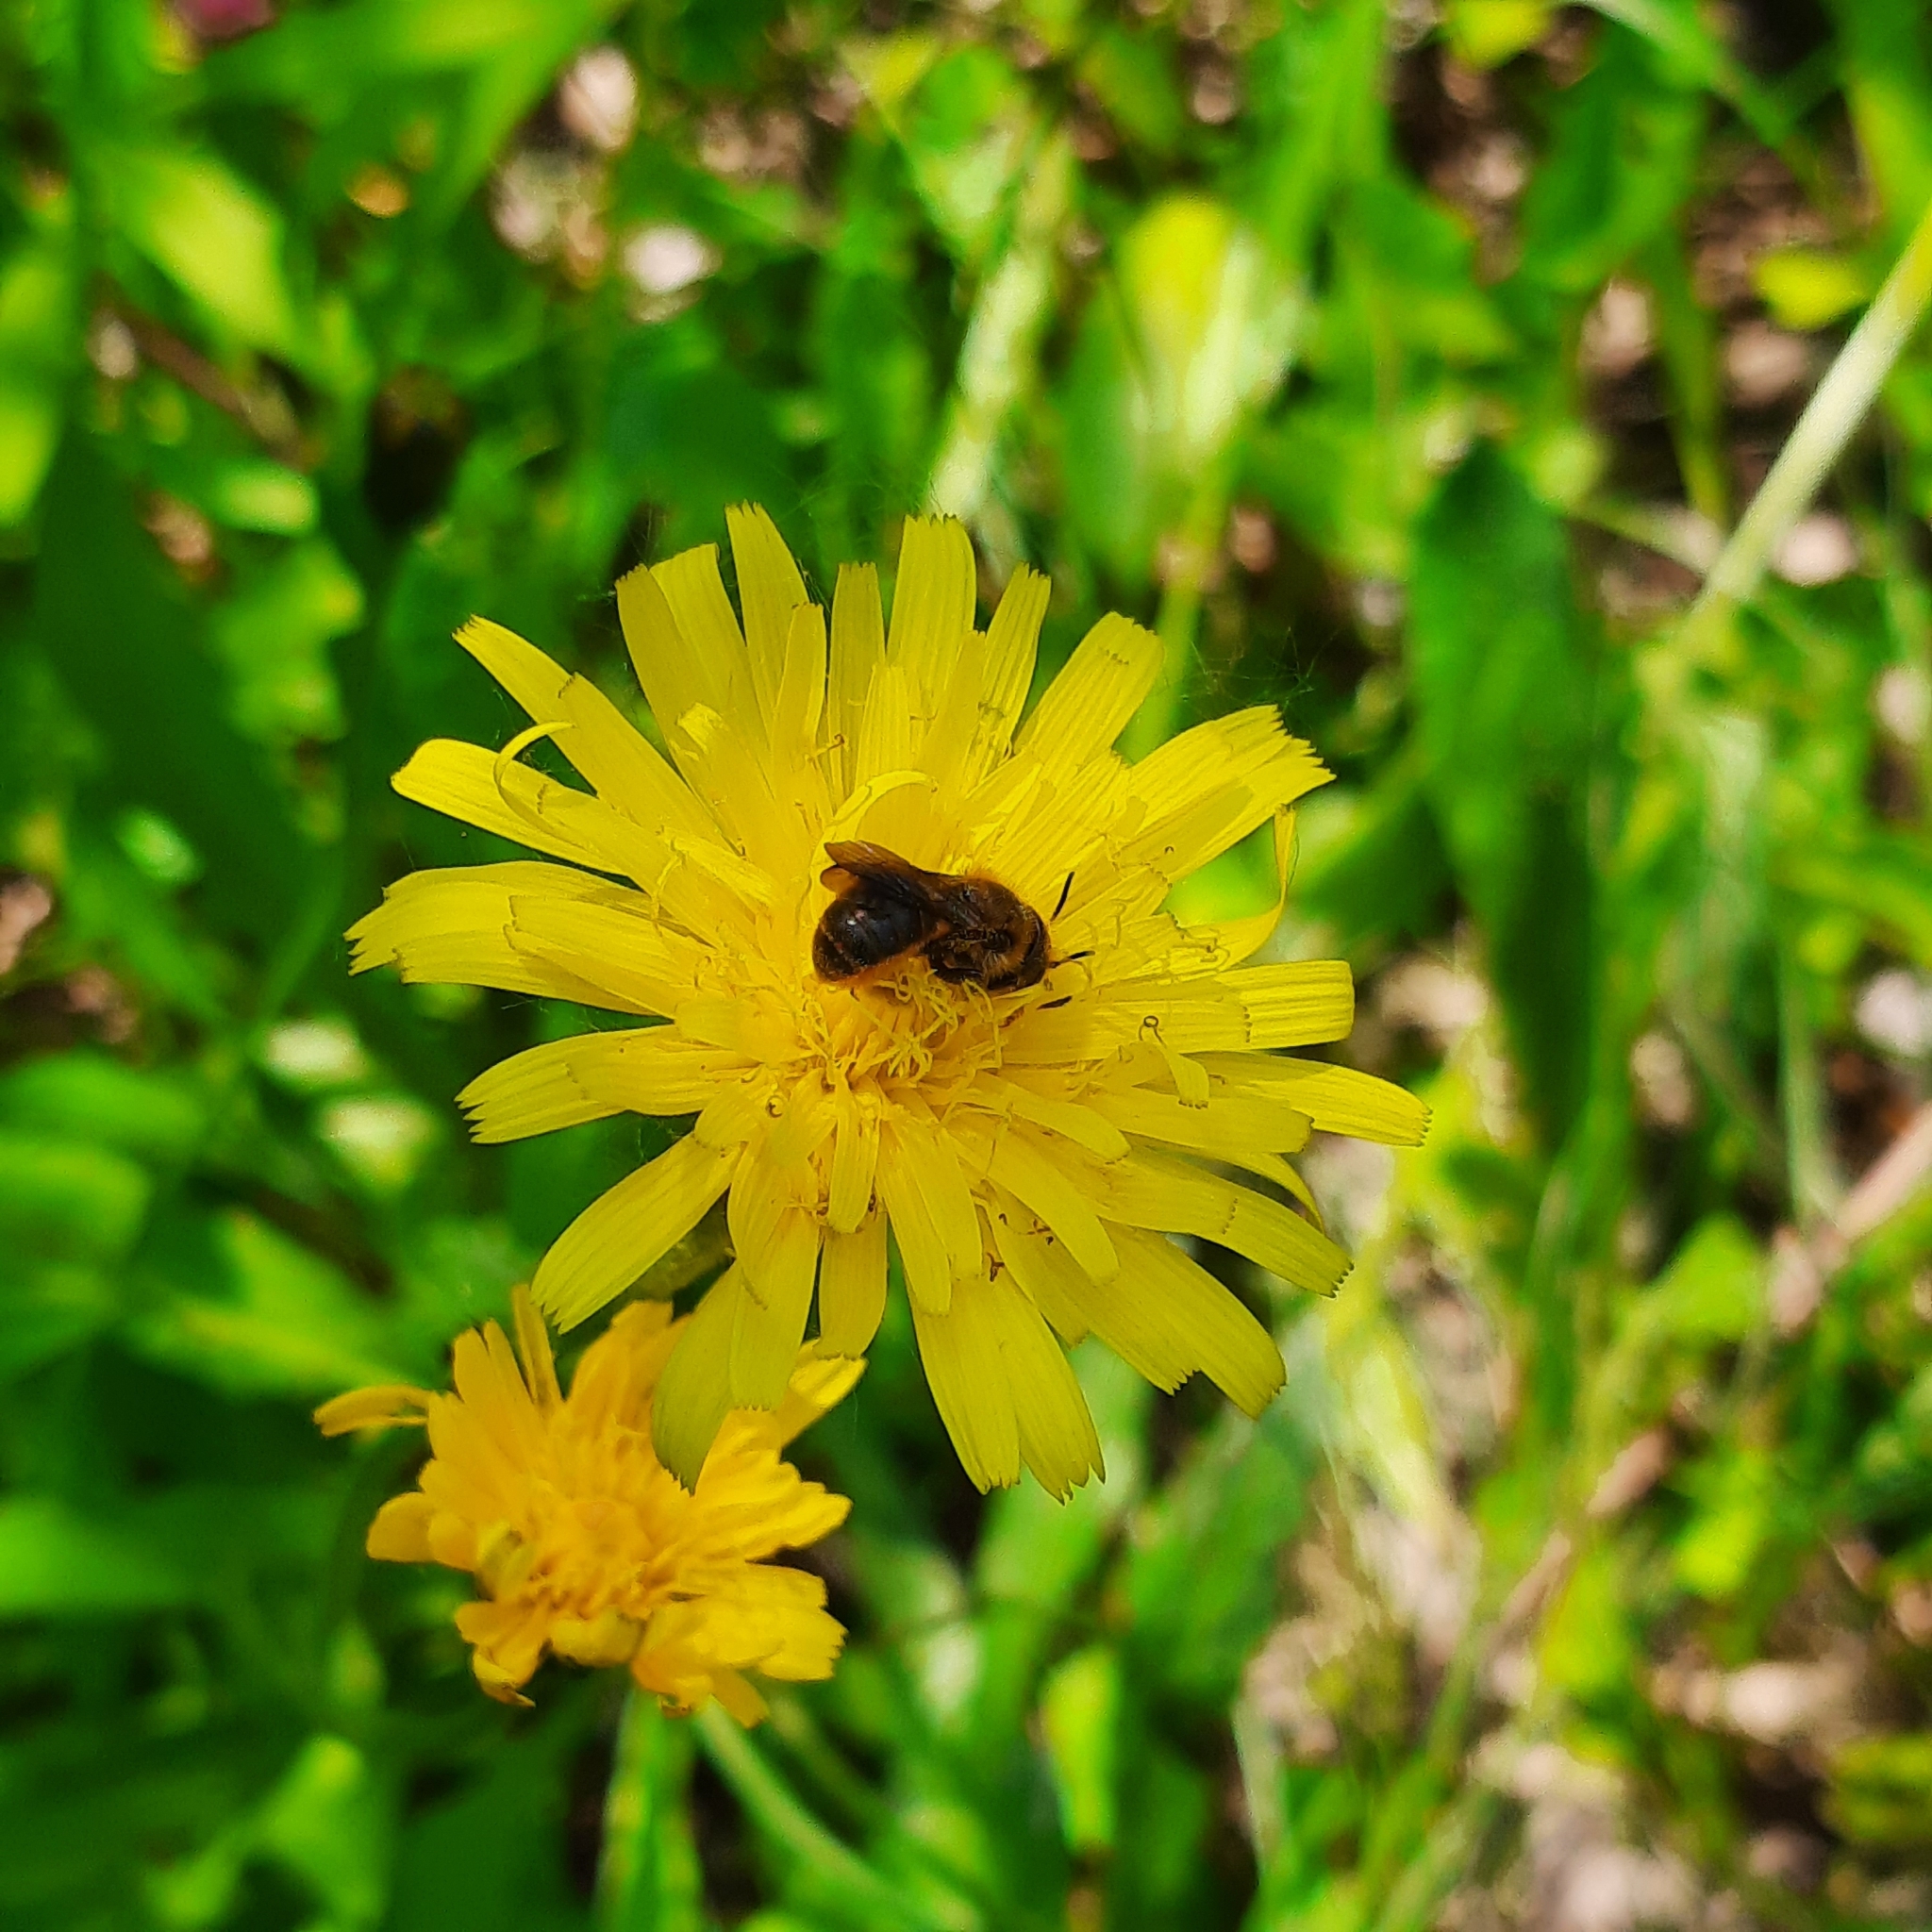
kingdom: Animalia
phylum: Arthropoda
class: Insecta
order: Hymenoptera
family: Megachilidae
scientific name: Megachilidae
